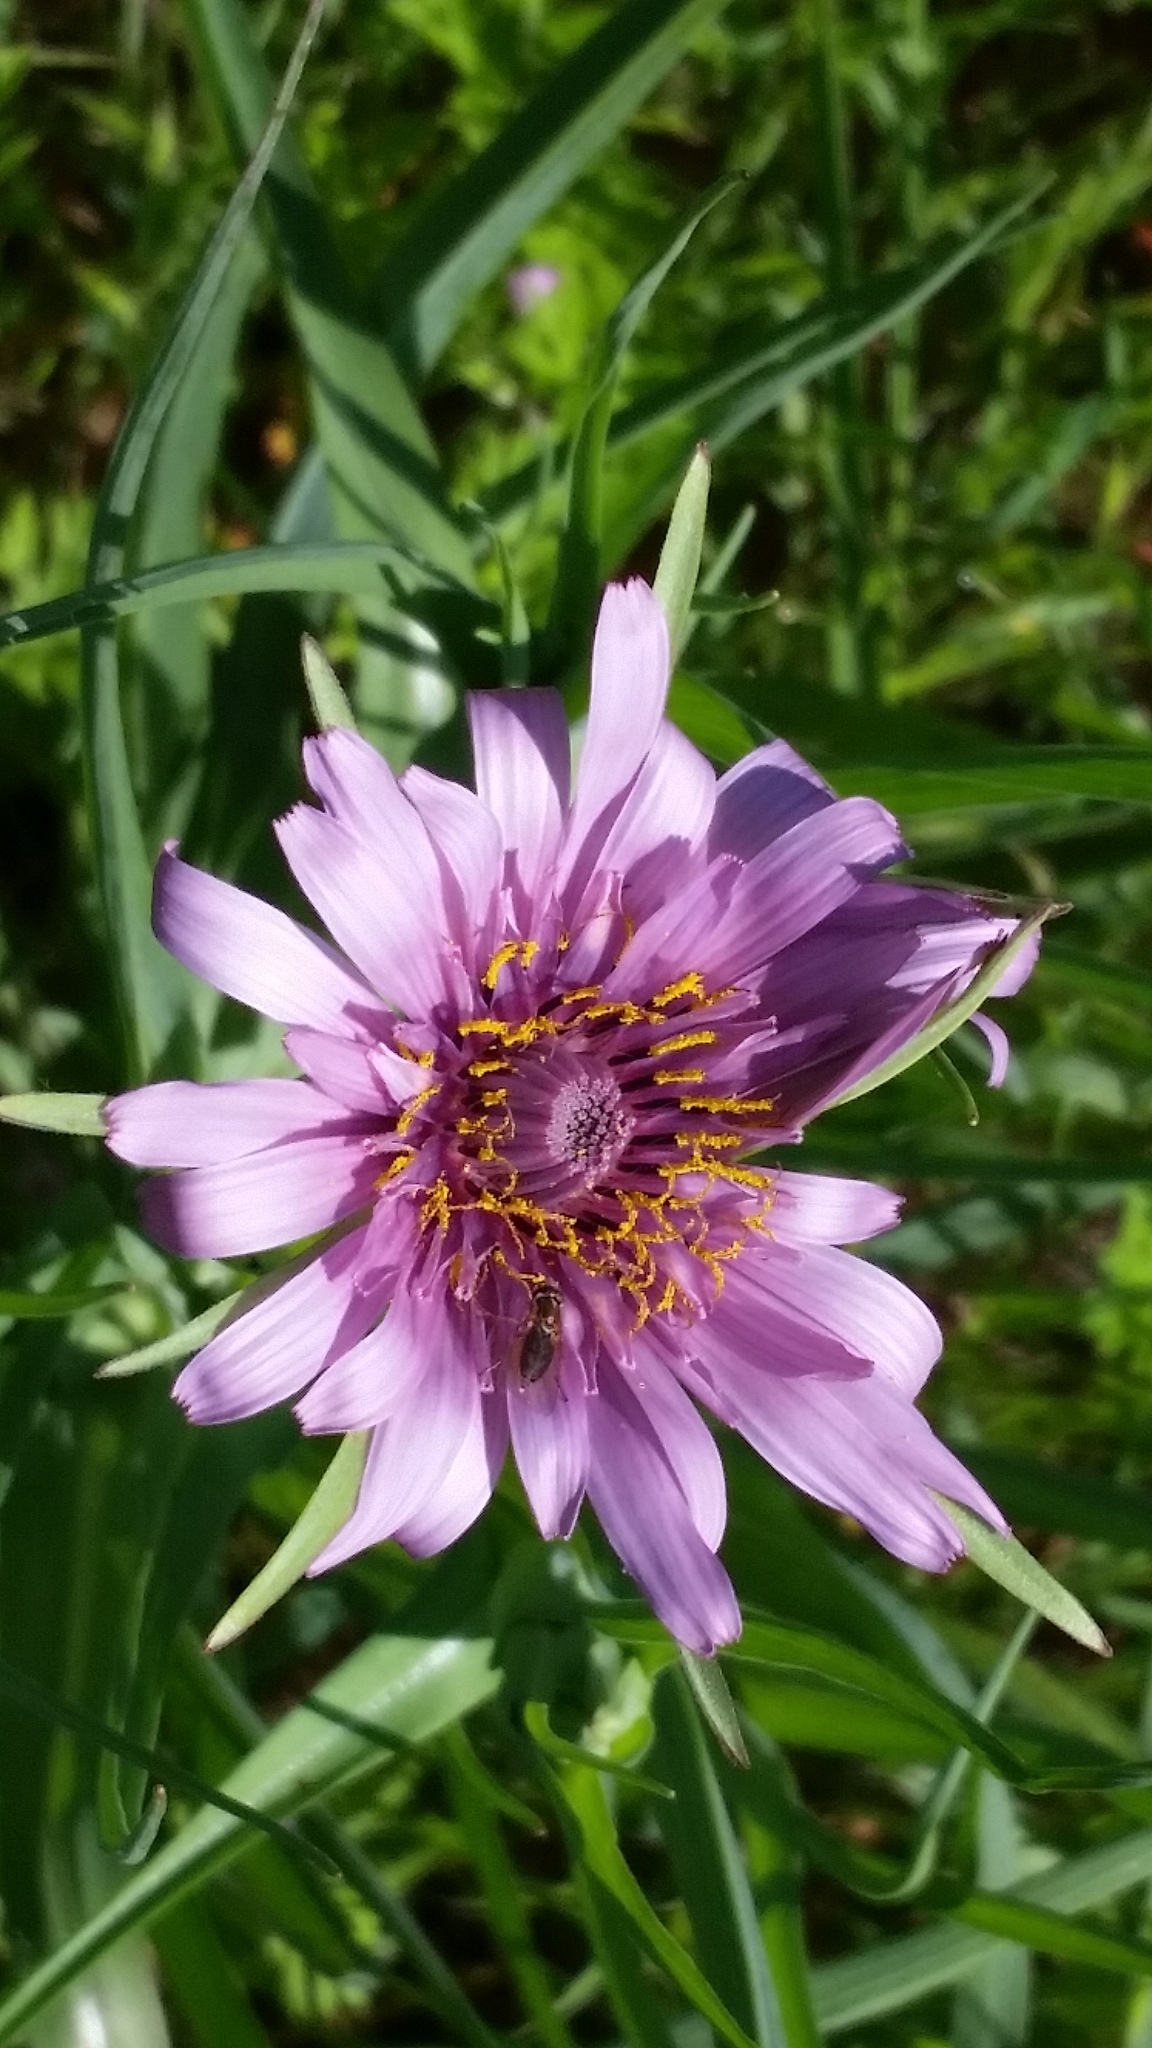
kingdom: Plantae
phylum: Tracheophyta
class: Magnoliopsida
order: Asterales
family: Asteraceae
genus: Tragopogon
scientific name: Tragopogon porrifolius
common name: Salsify
